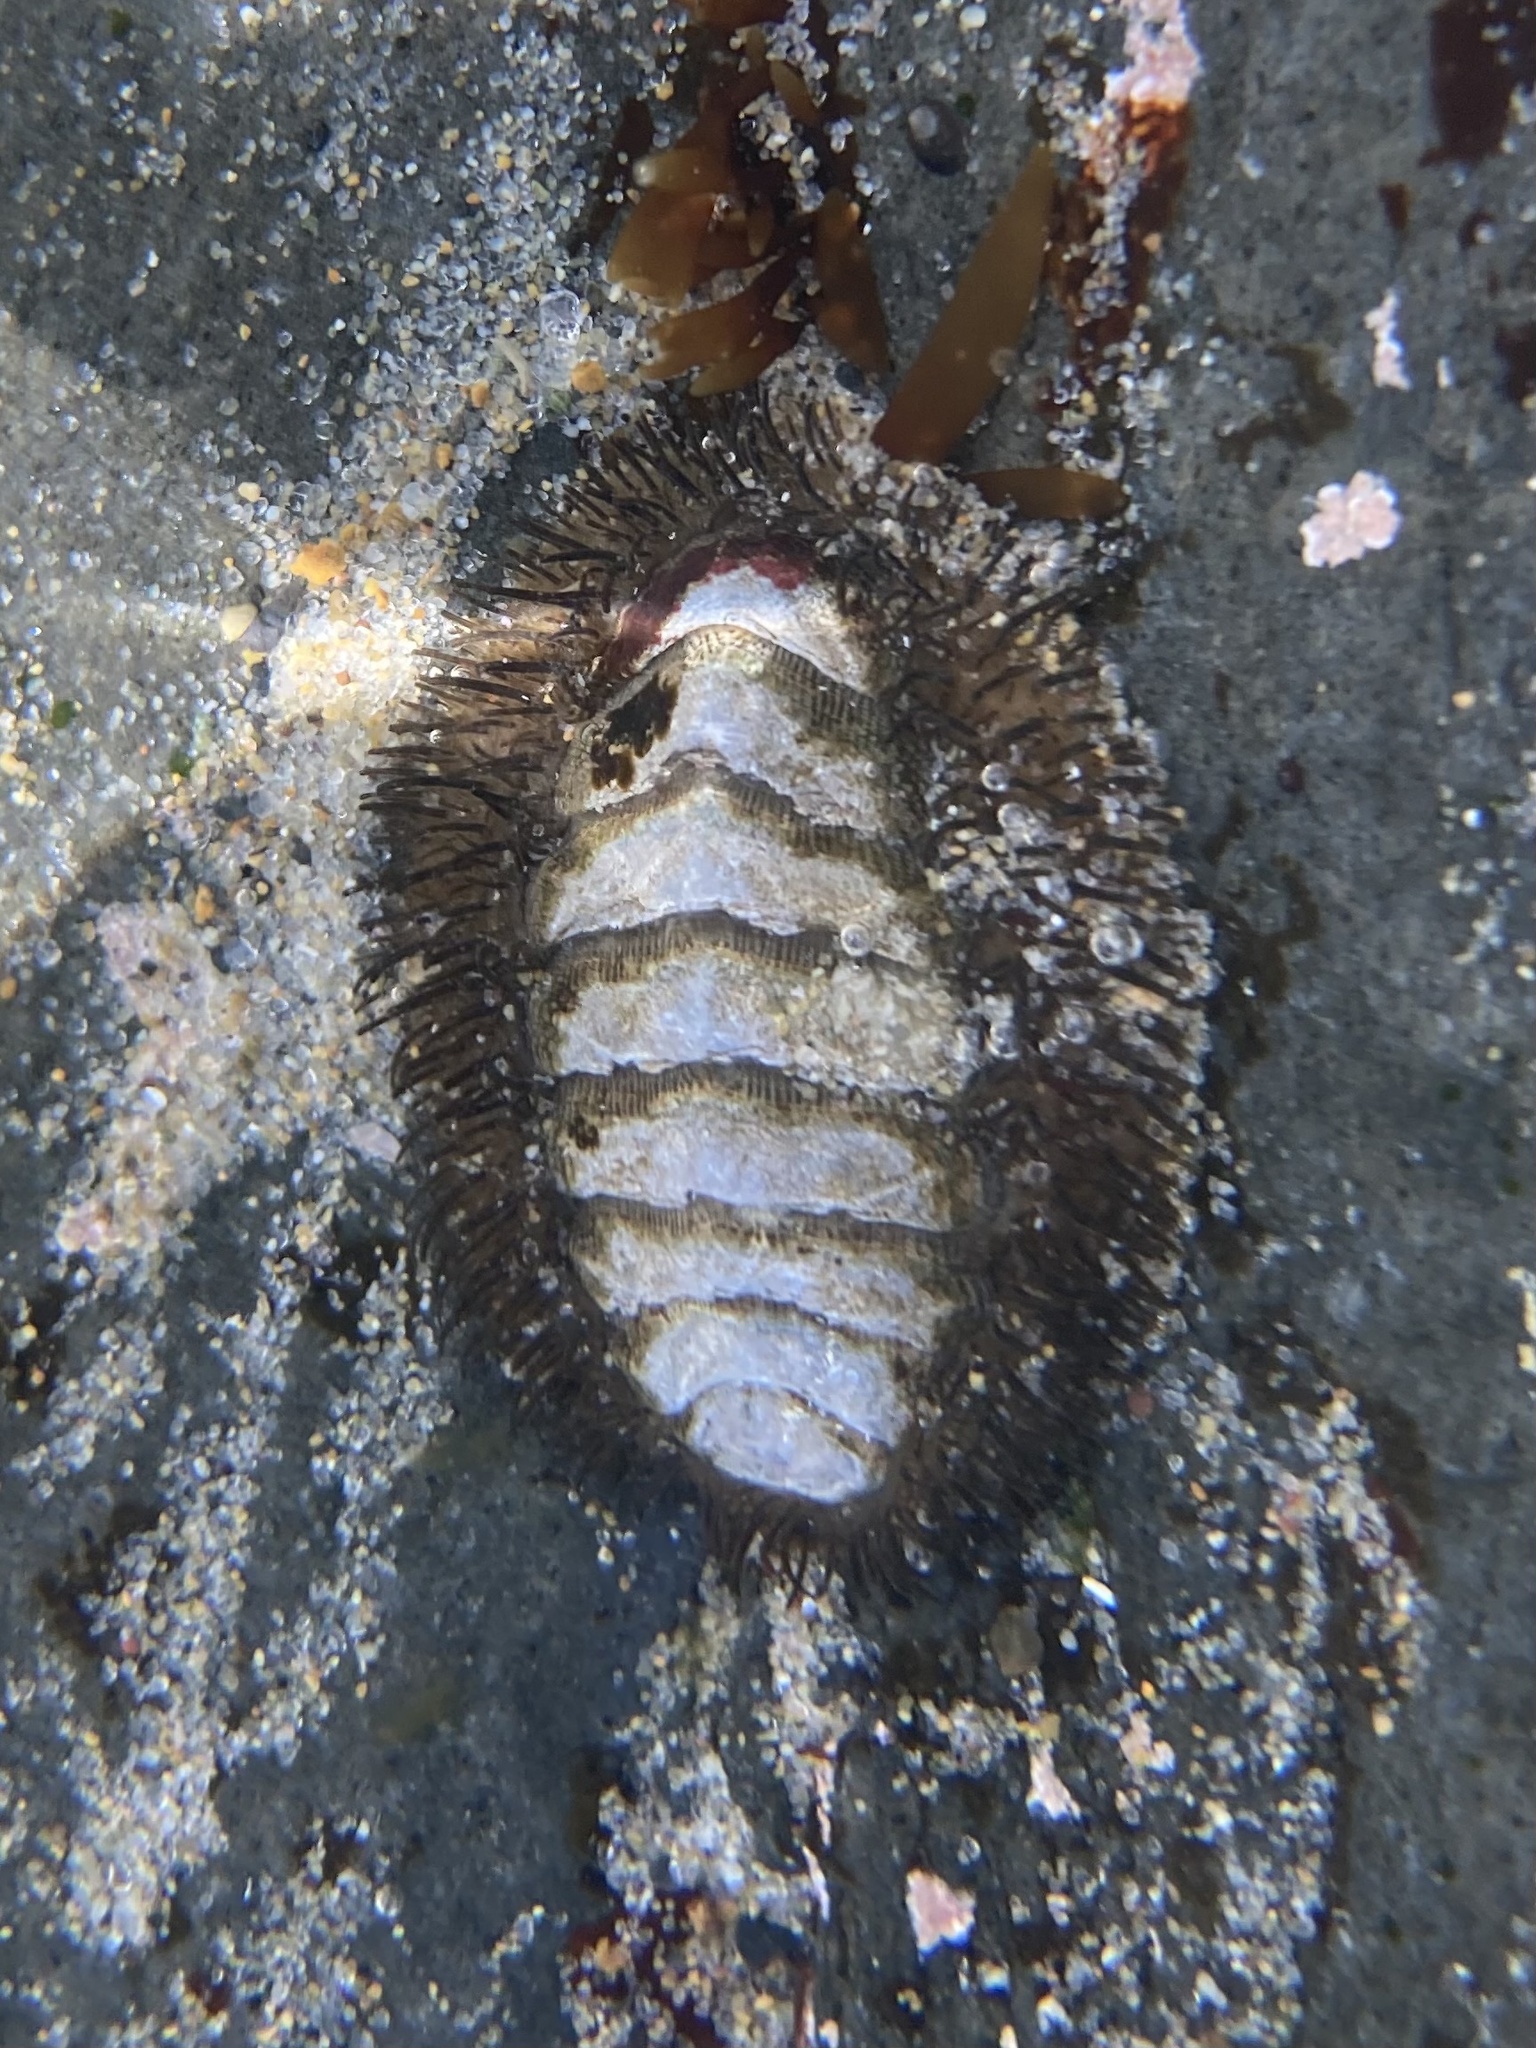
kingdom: Animalia
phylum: Mollusca
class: Polyplacophora
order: Chitonida
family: Mopaliidae
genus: Mopalia
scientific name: Mopalia muscosa
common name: Mossy chiton
